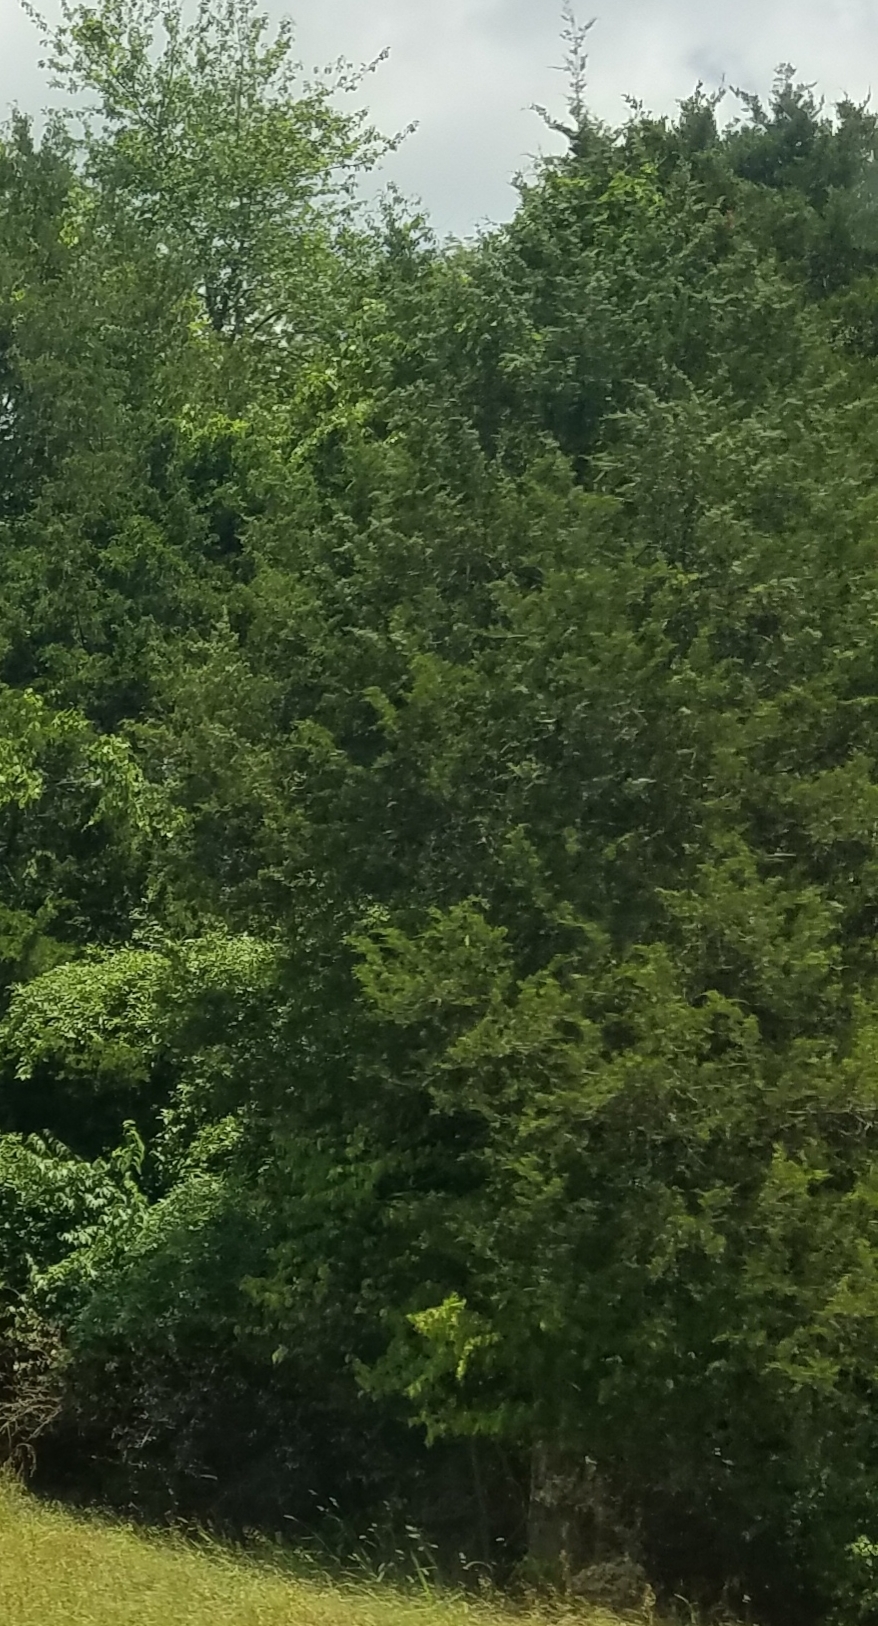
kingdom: Plantae
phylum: Tracheophyta
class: Pinopsida
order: Pinales
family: Cupressaceae
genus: Juniperus
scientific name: Juniperus virginiana
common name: Red juniper
